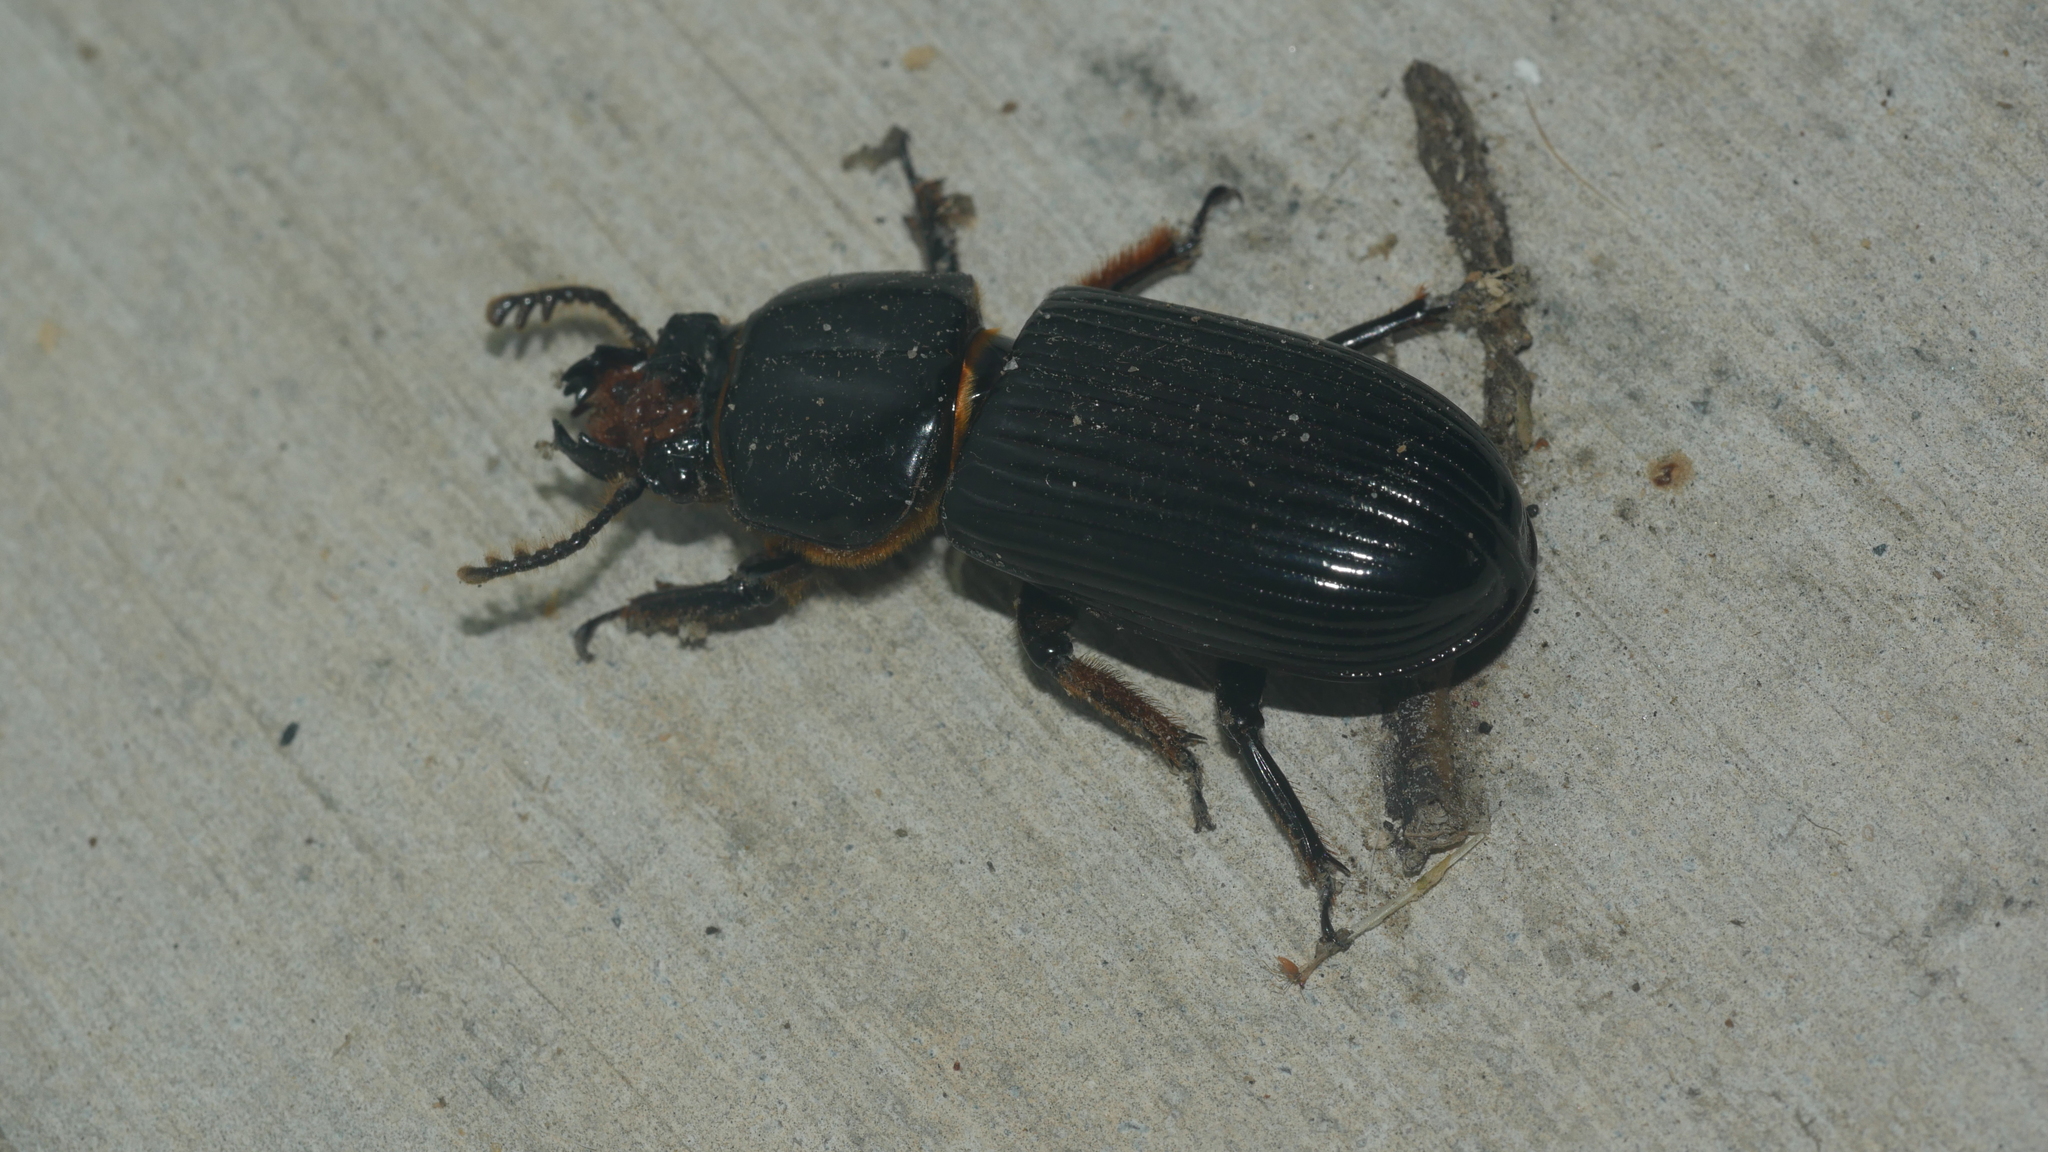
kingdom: Animalia
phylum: Arthropoda
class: Insecta
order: Coleoptera
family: Passalidae
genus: Odontotaenius
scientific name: Odontotaenius disjunctus
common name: Patent leather beetle
